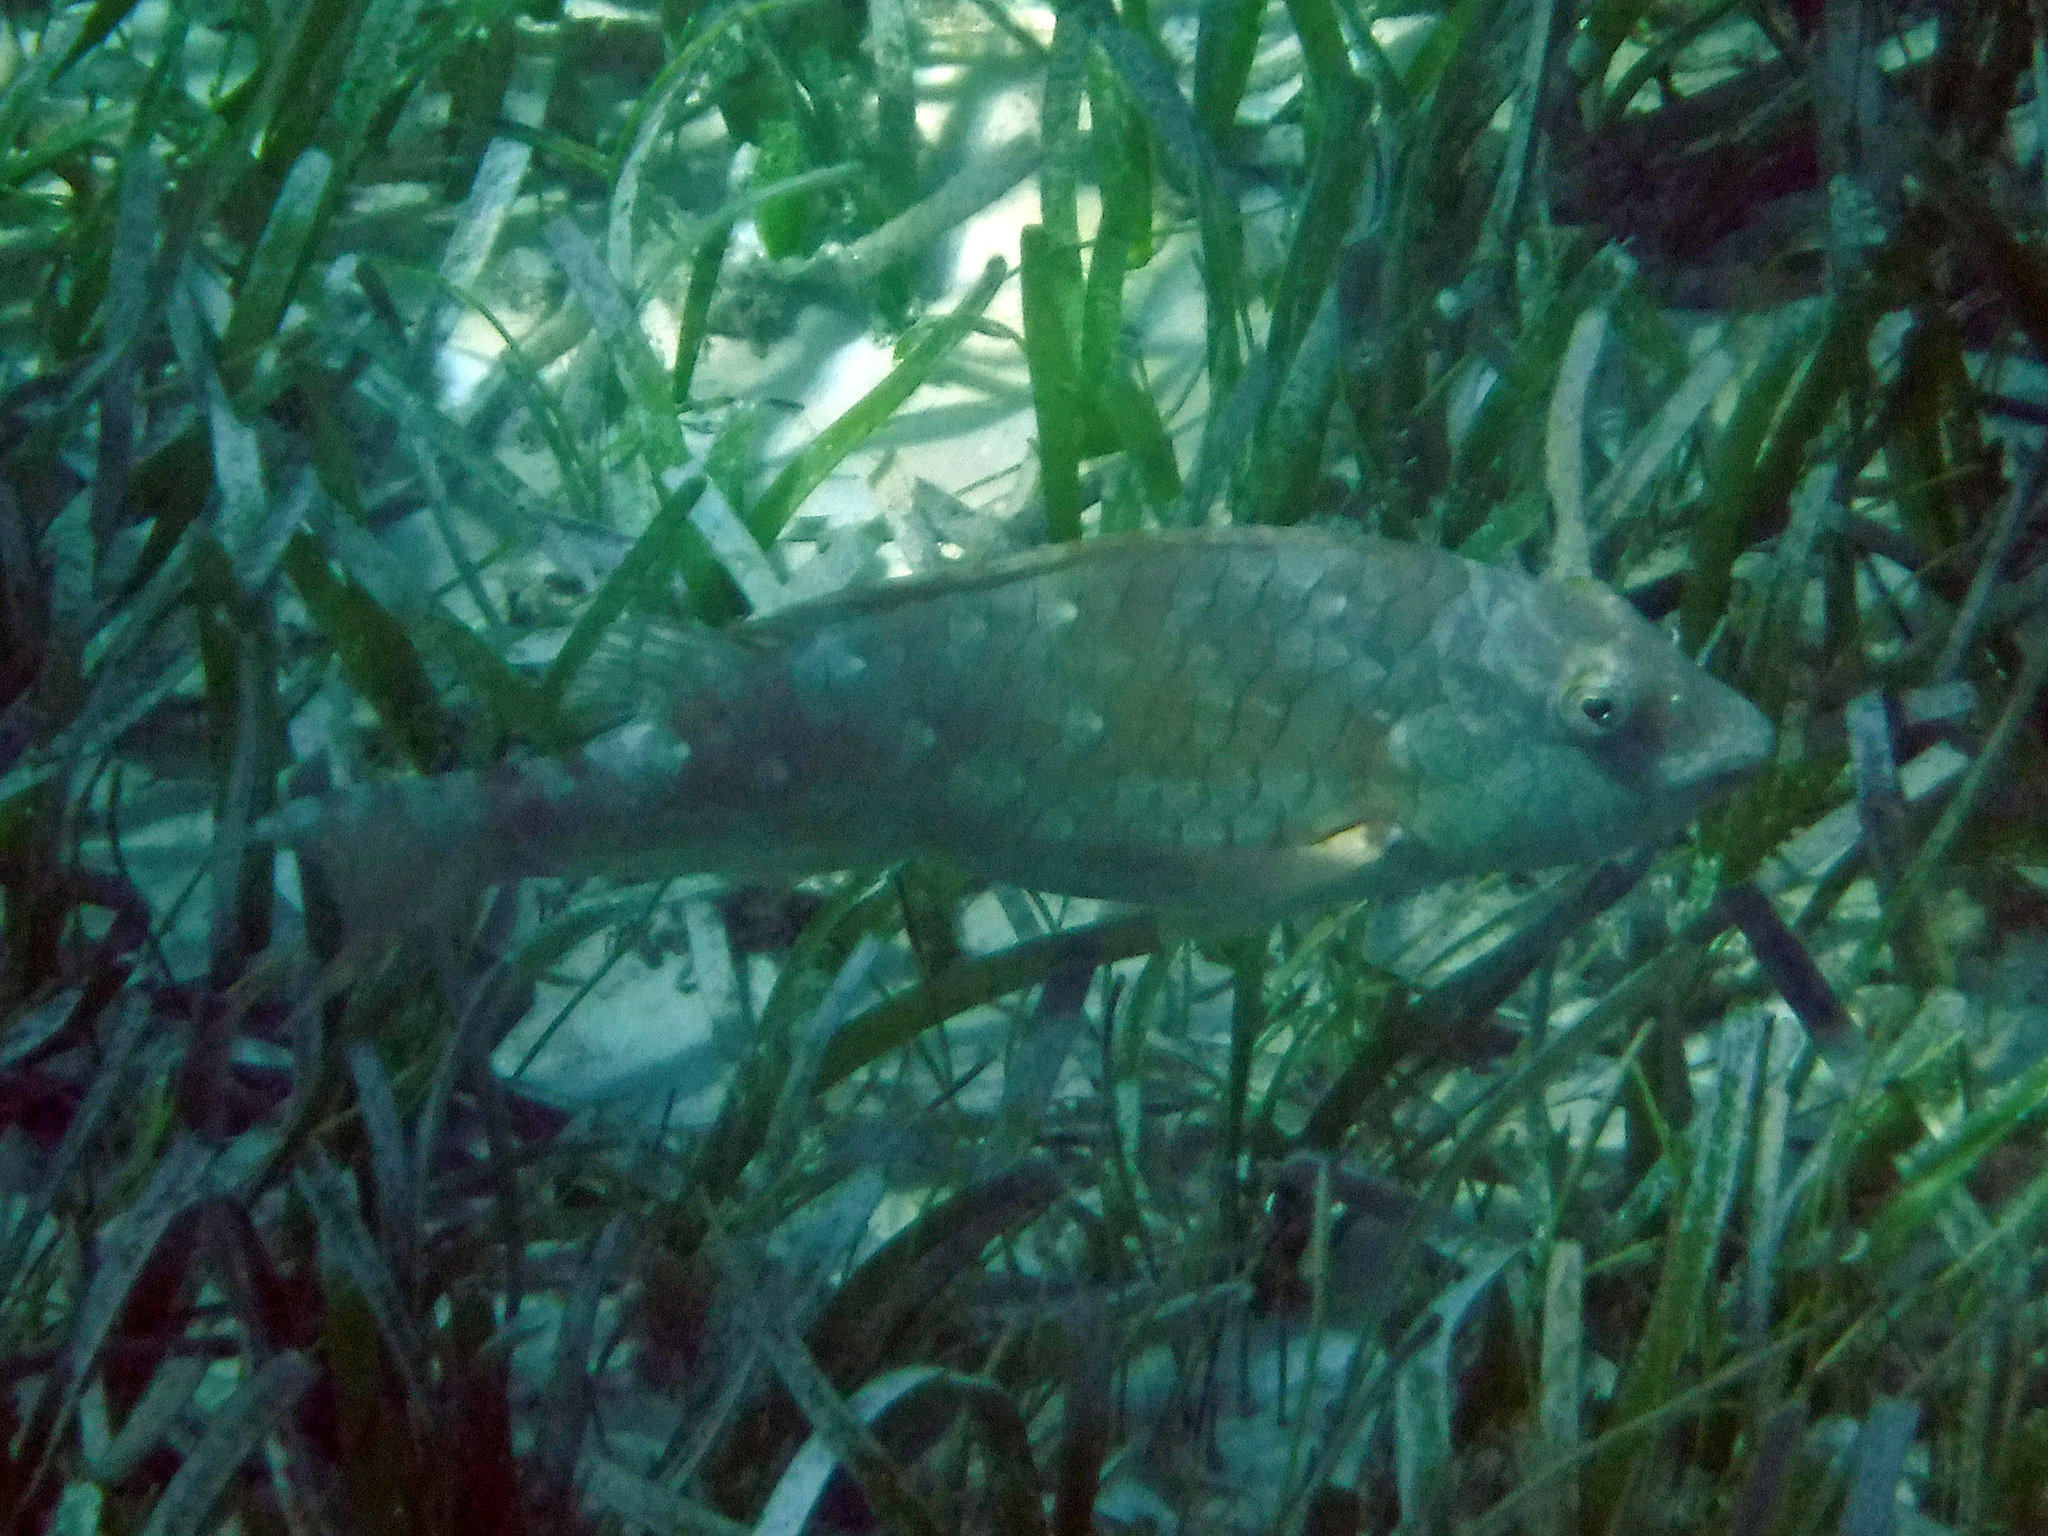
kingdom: Animalia
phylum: Chordata
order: Perciformes
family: Scaridae
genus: Sparisoma
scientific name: Sparisoma chrysopterum
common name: Redtail parrotfish
